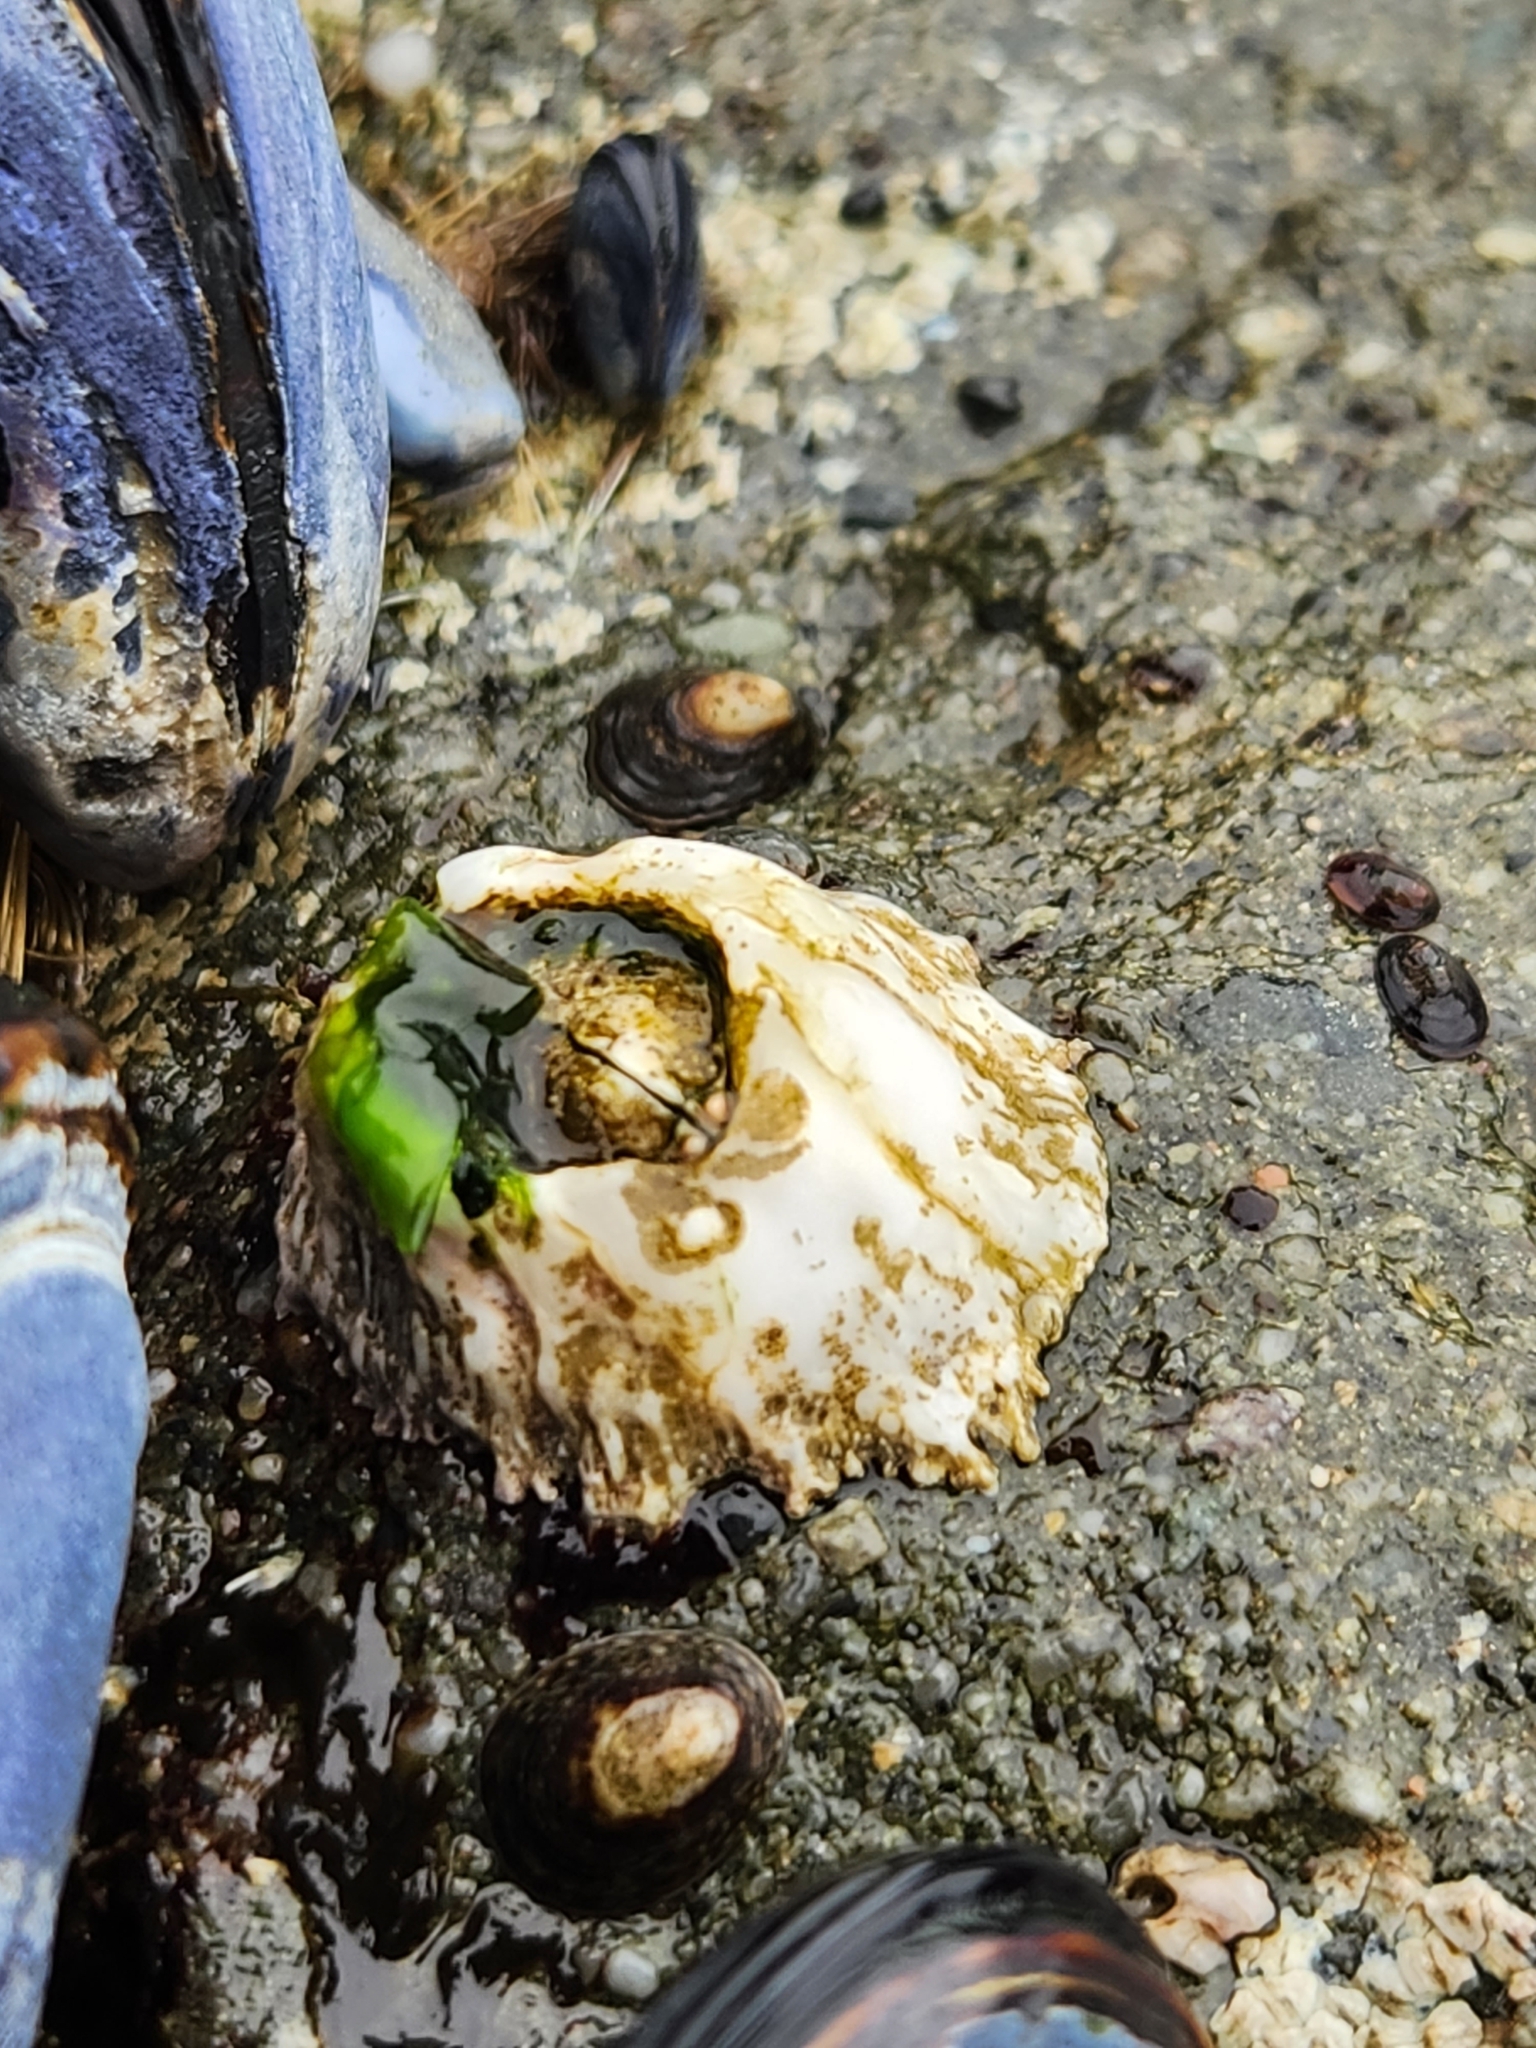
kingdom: Animalia
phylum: Arthropoda
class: Maxillopoda
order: Sessilia
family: Archaeobalanidae
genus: Semibalanus
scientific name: Semibalanus cariosus
